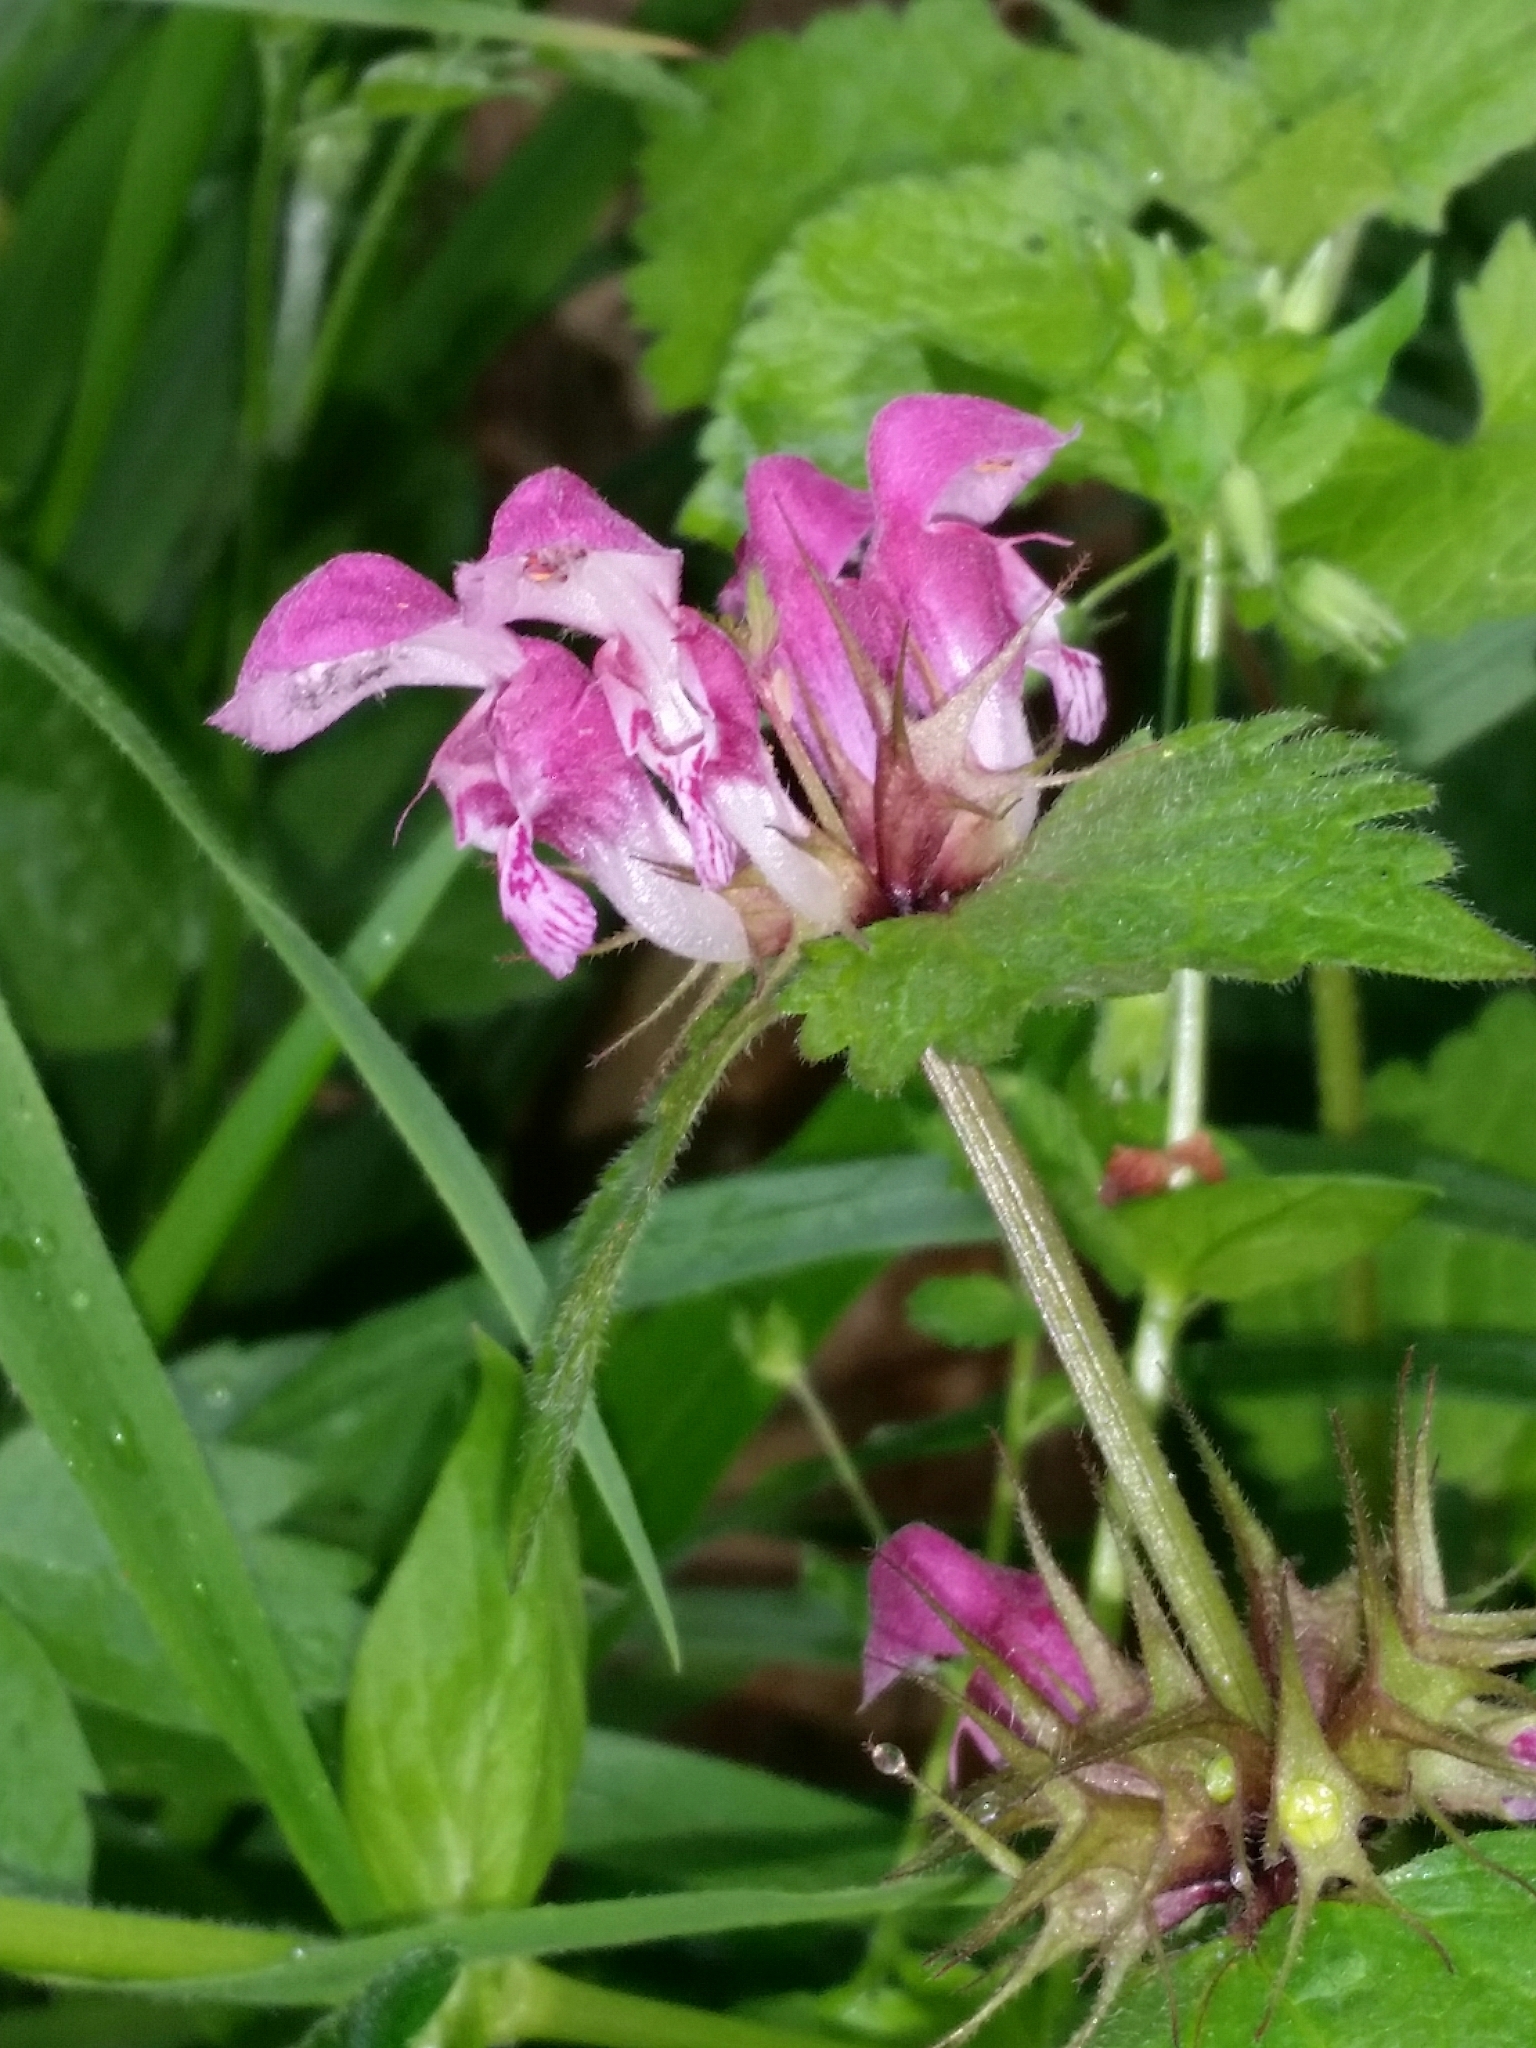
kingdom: Plantae
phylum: Tracheophyta
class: Magnoliopsida
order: Lamiales
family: Lamiaceae
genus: Lamium
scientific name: Lamium maculatum
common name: Spotted dead-nettle
